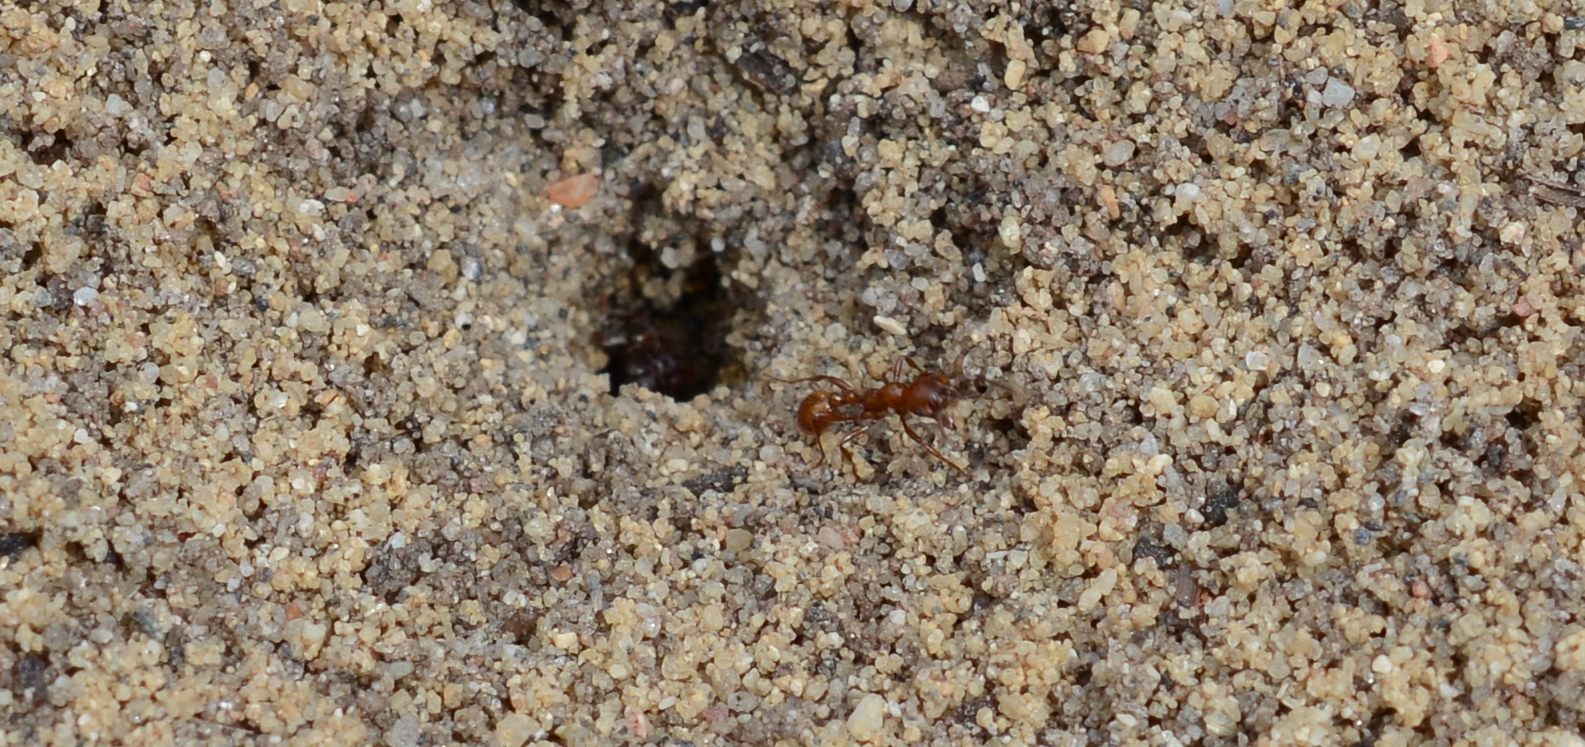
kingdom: Animalia
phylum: Arthropoda
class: Insecta
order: Hymenoptera
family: Formicidae
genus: Manica
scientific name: Manica invidia
